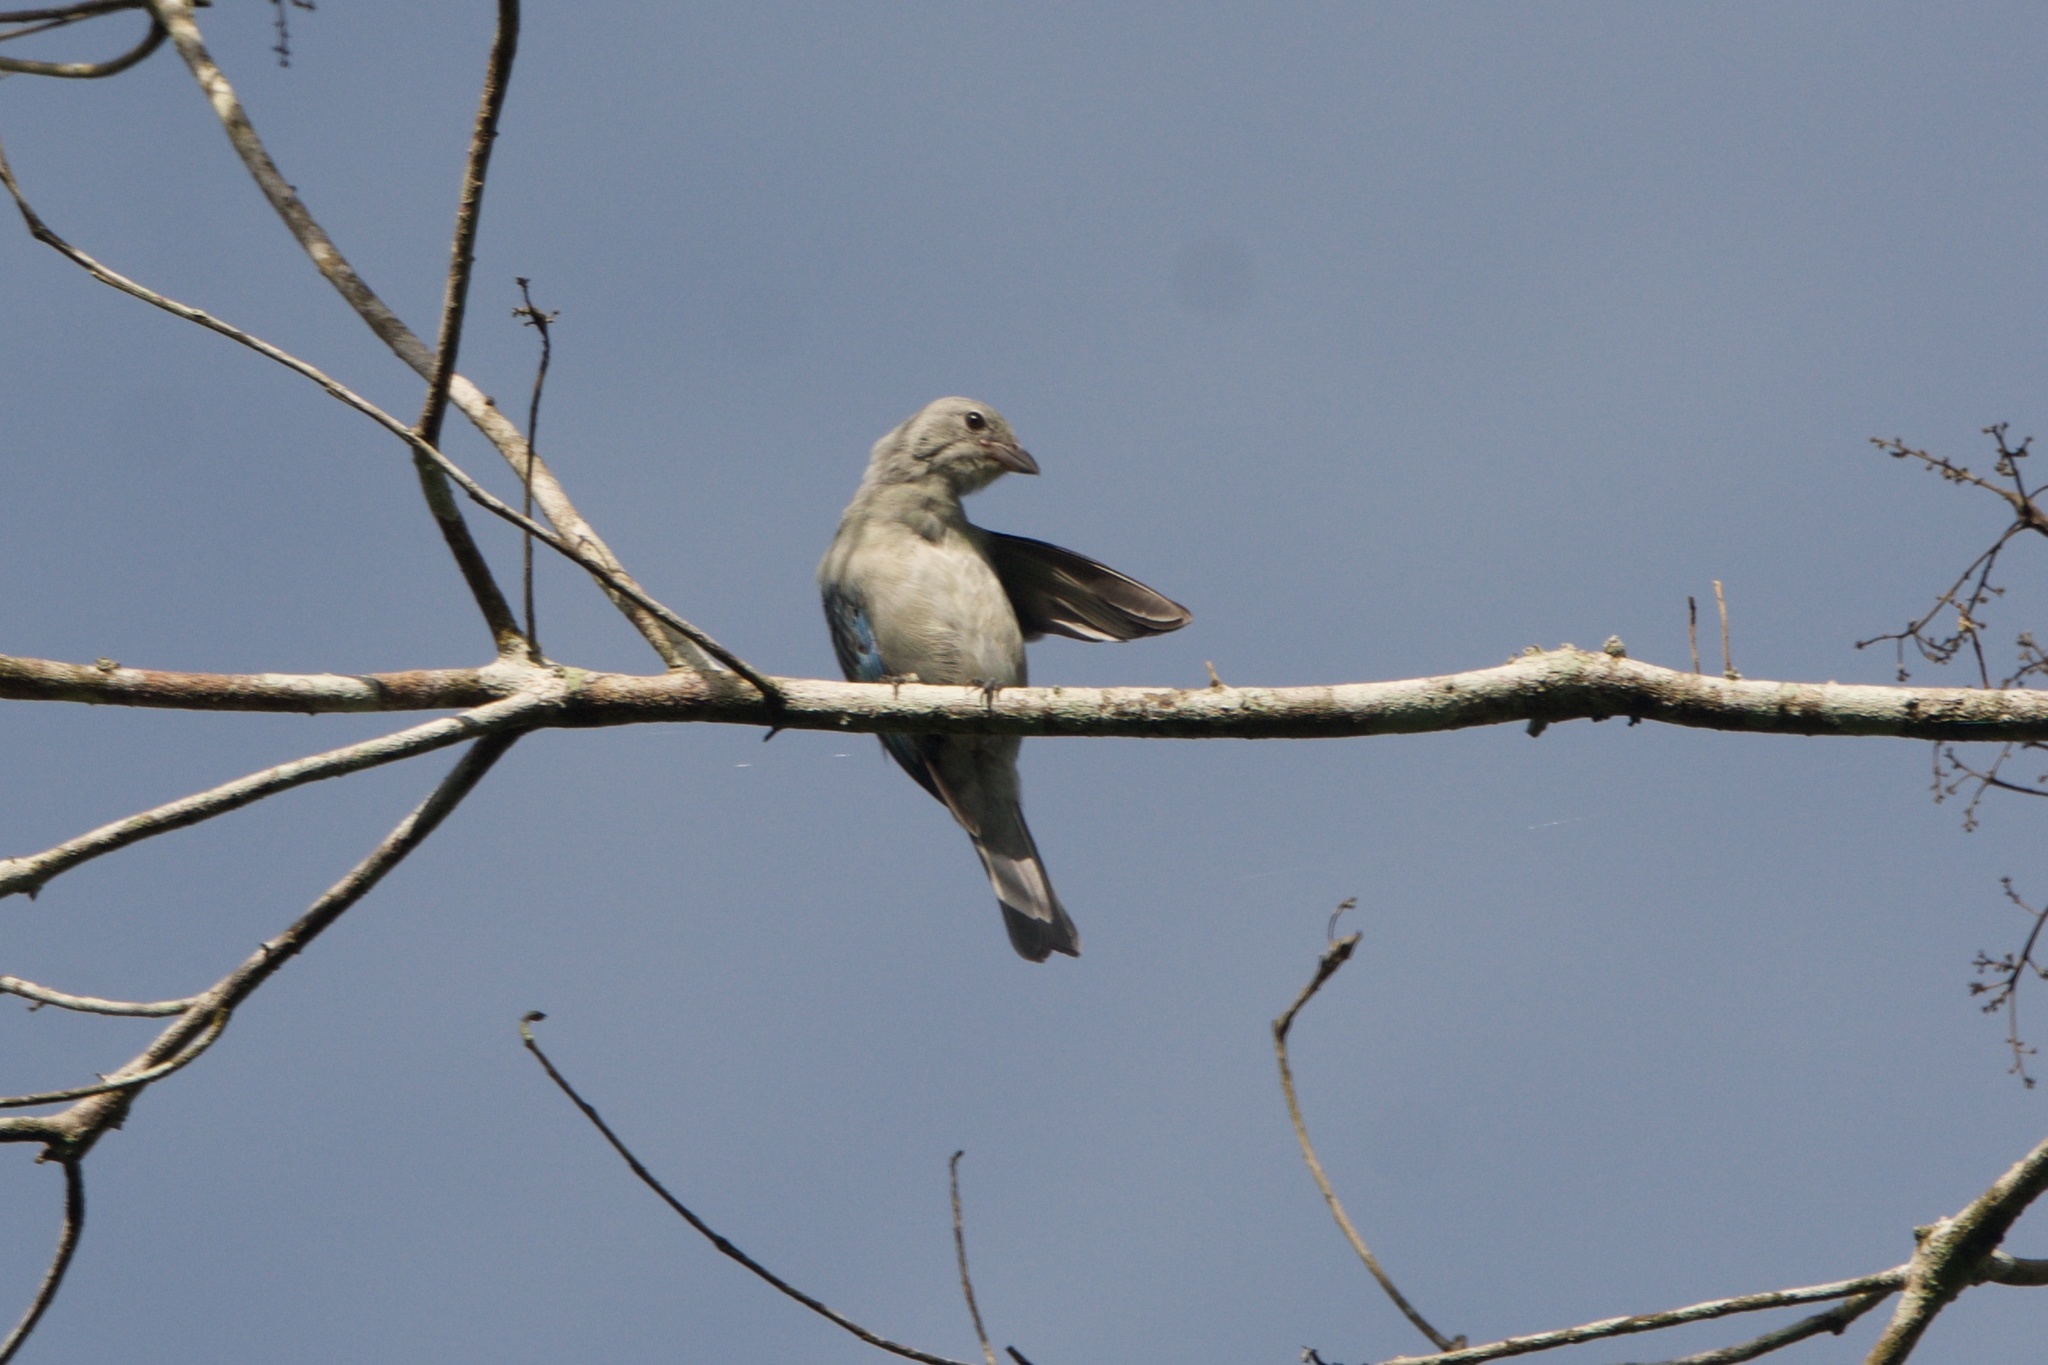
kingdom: Animalia
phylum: Chordata
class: Aves
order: Passeriformes
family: Thraupidae
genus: Thraupis
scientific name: Thraupis episcopus
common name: Blue-grey tanager
